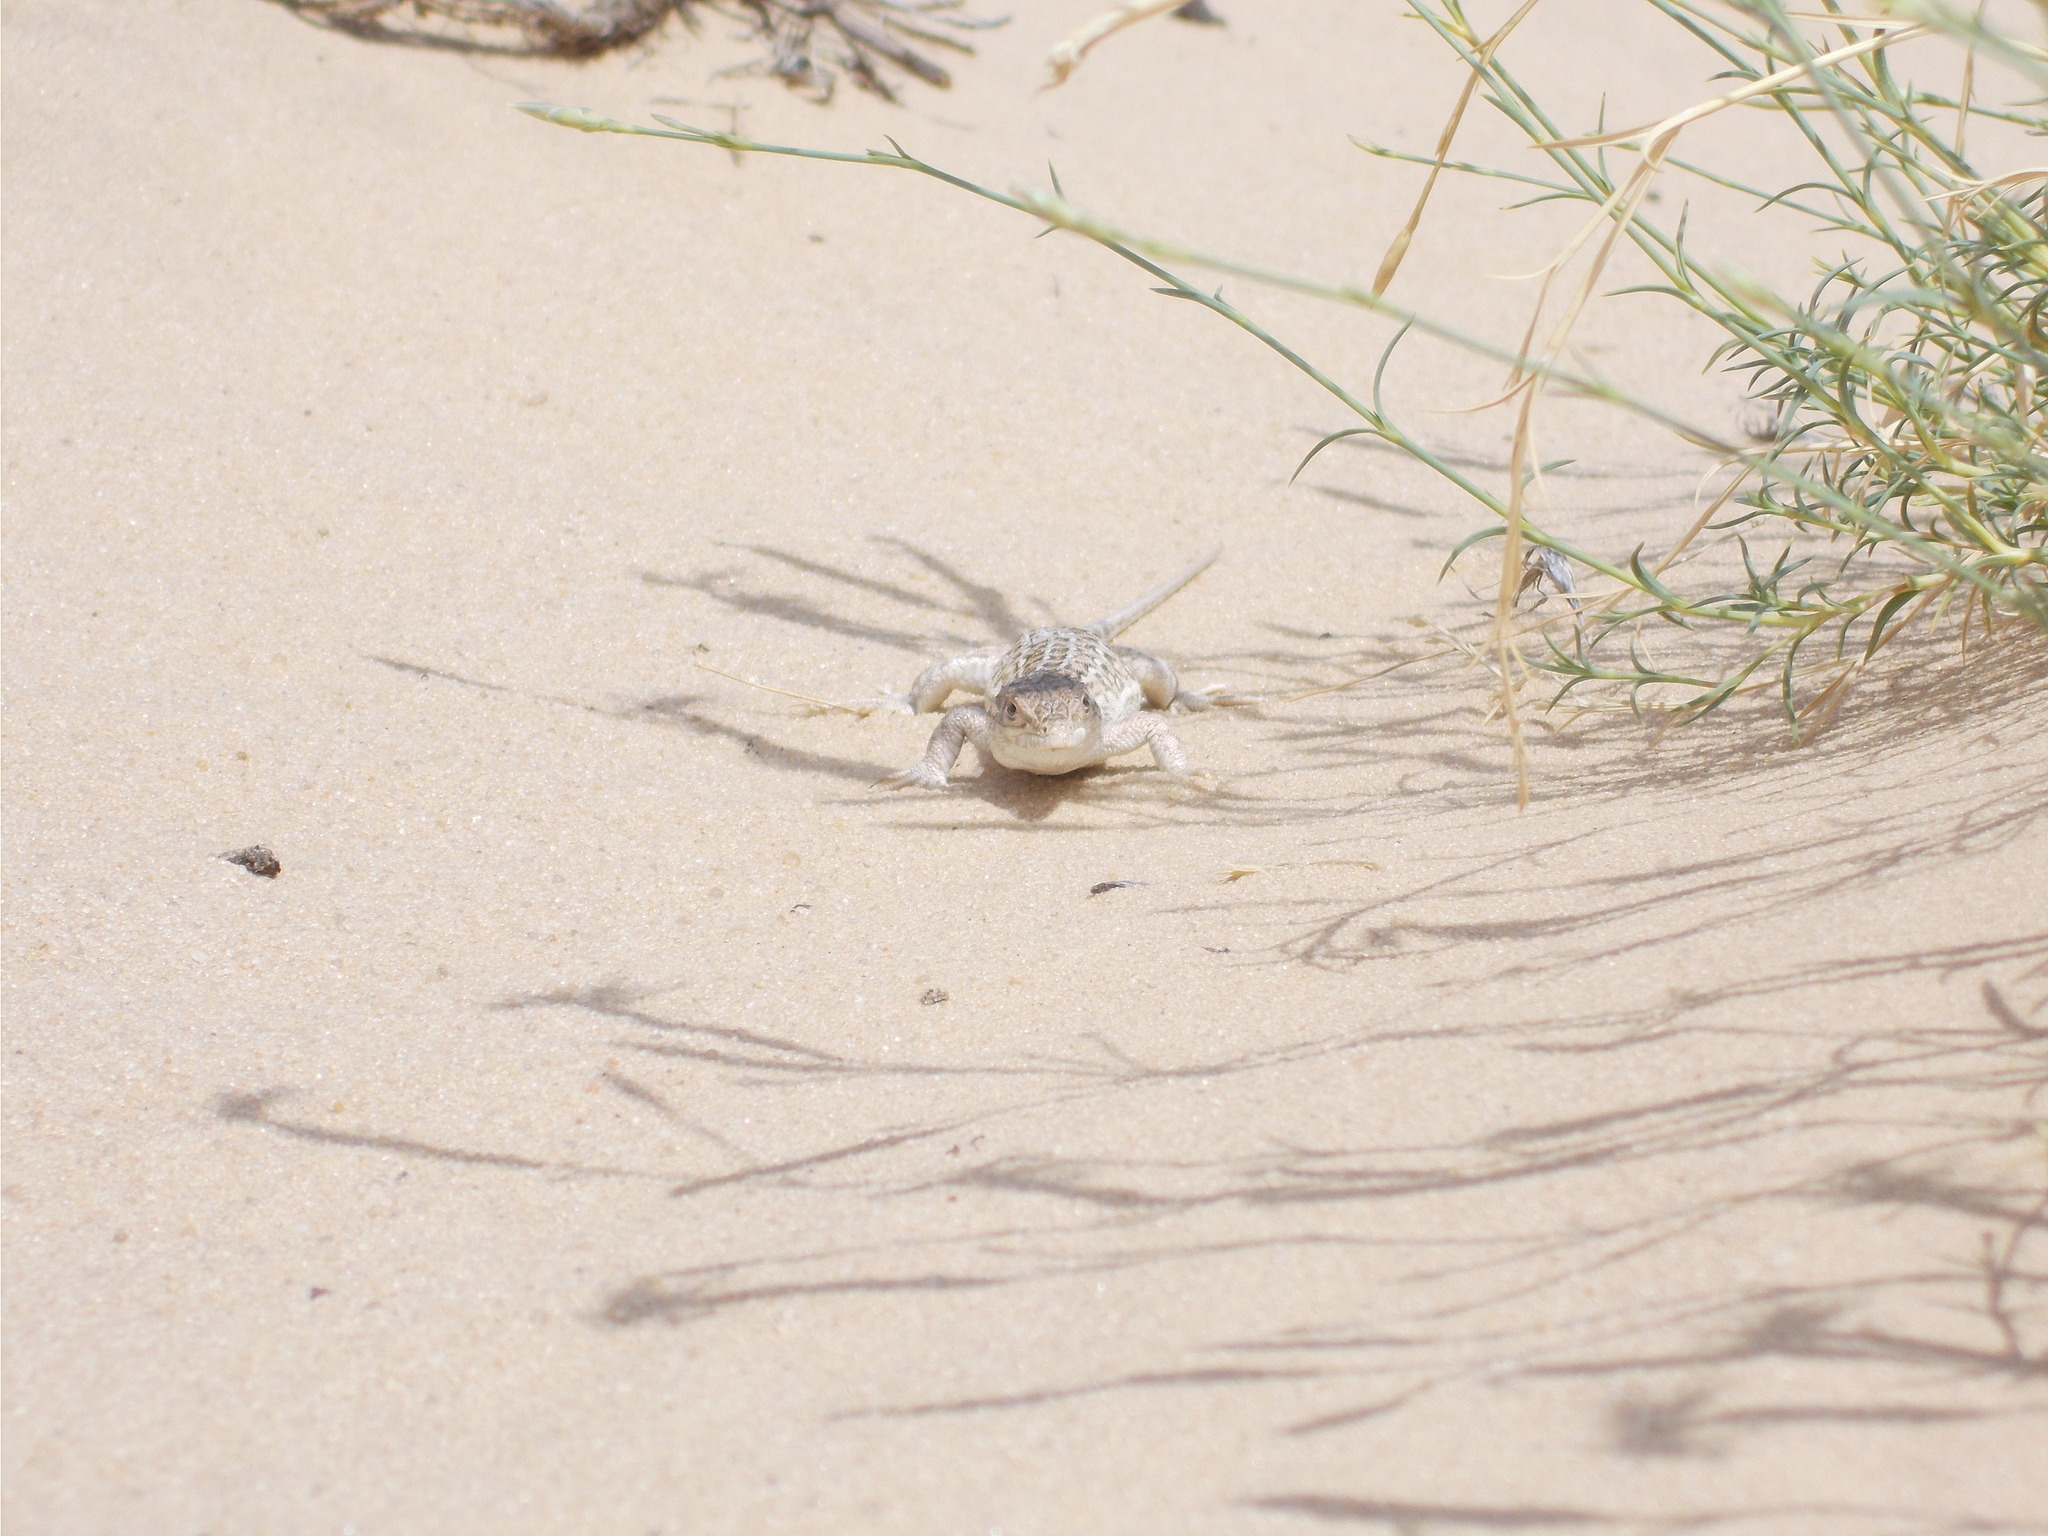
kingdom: Animalia
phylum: Chordata
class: Squamata
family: Lacertidae
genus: Eremias
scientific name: Eremias arguta
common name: Racerunner
